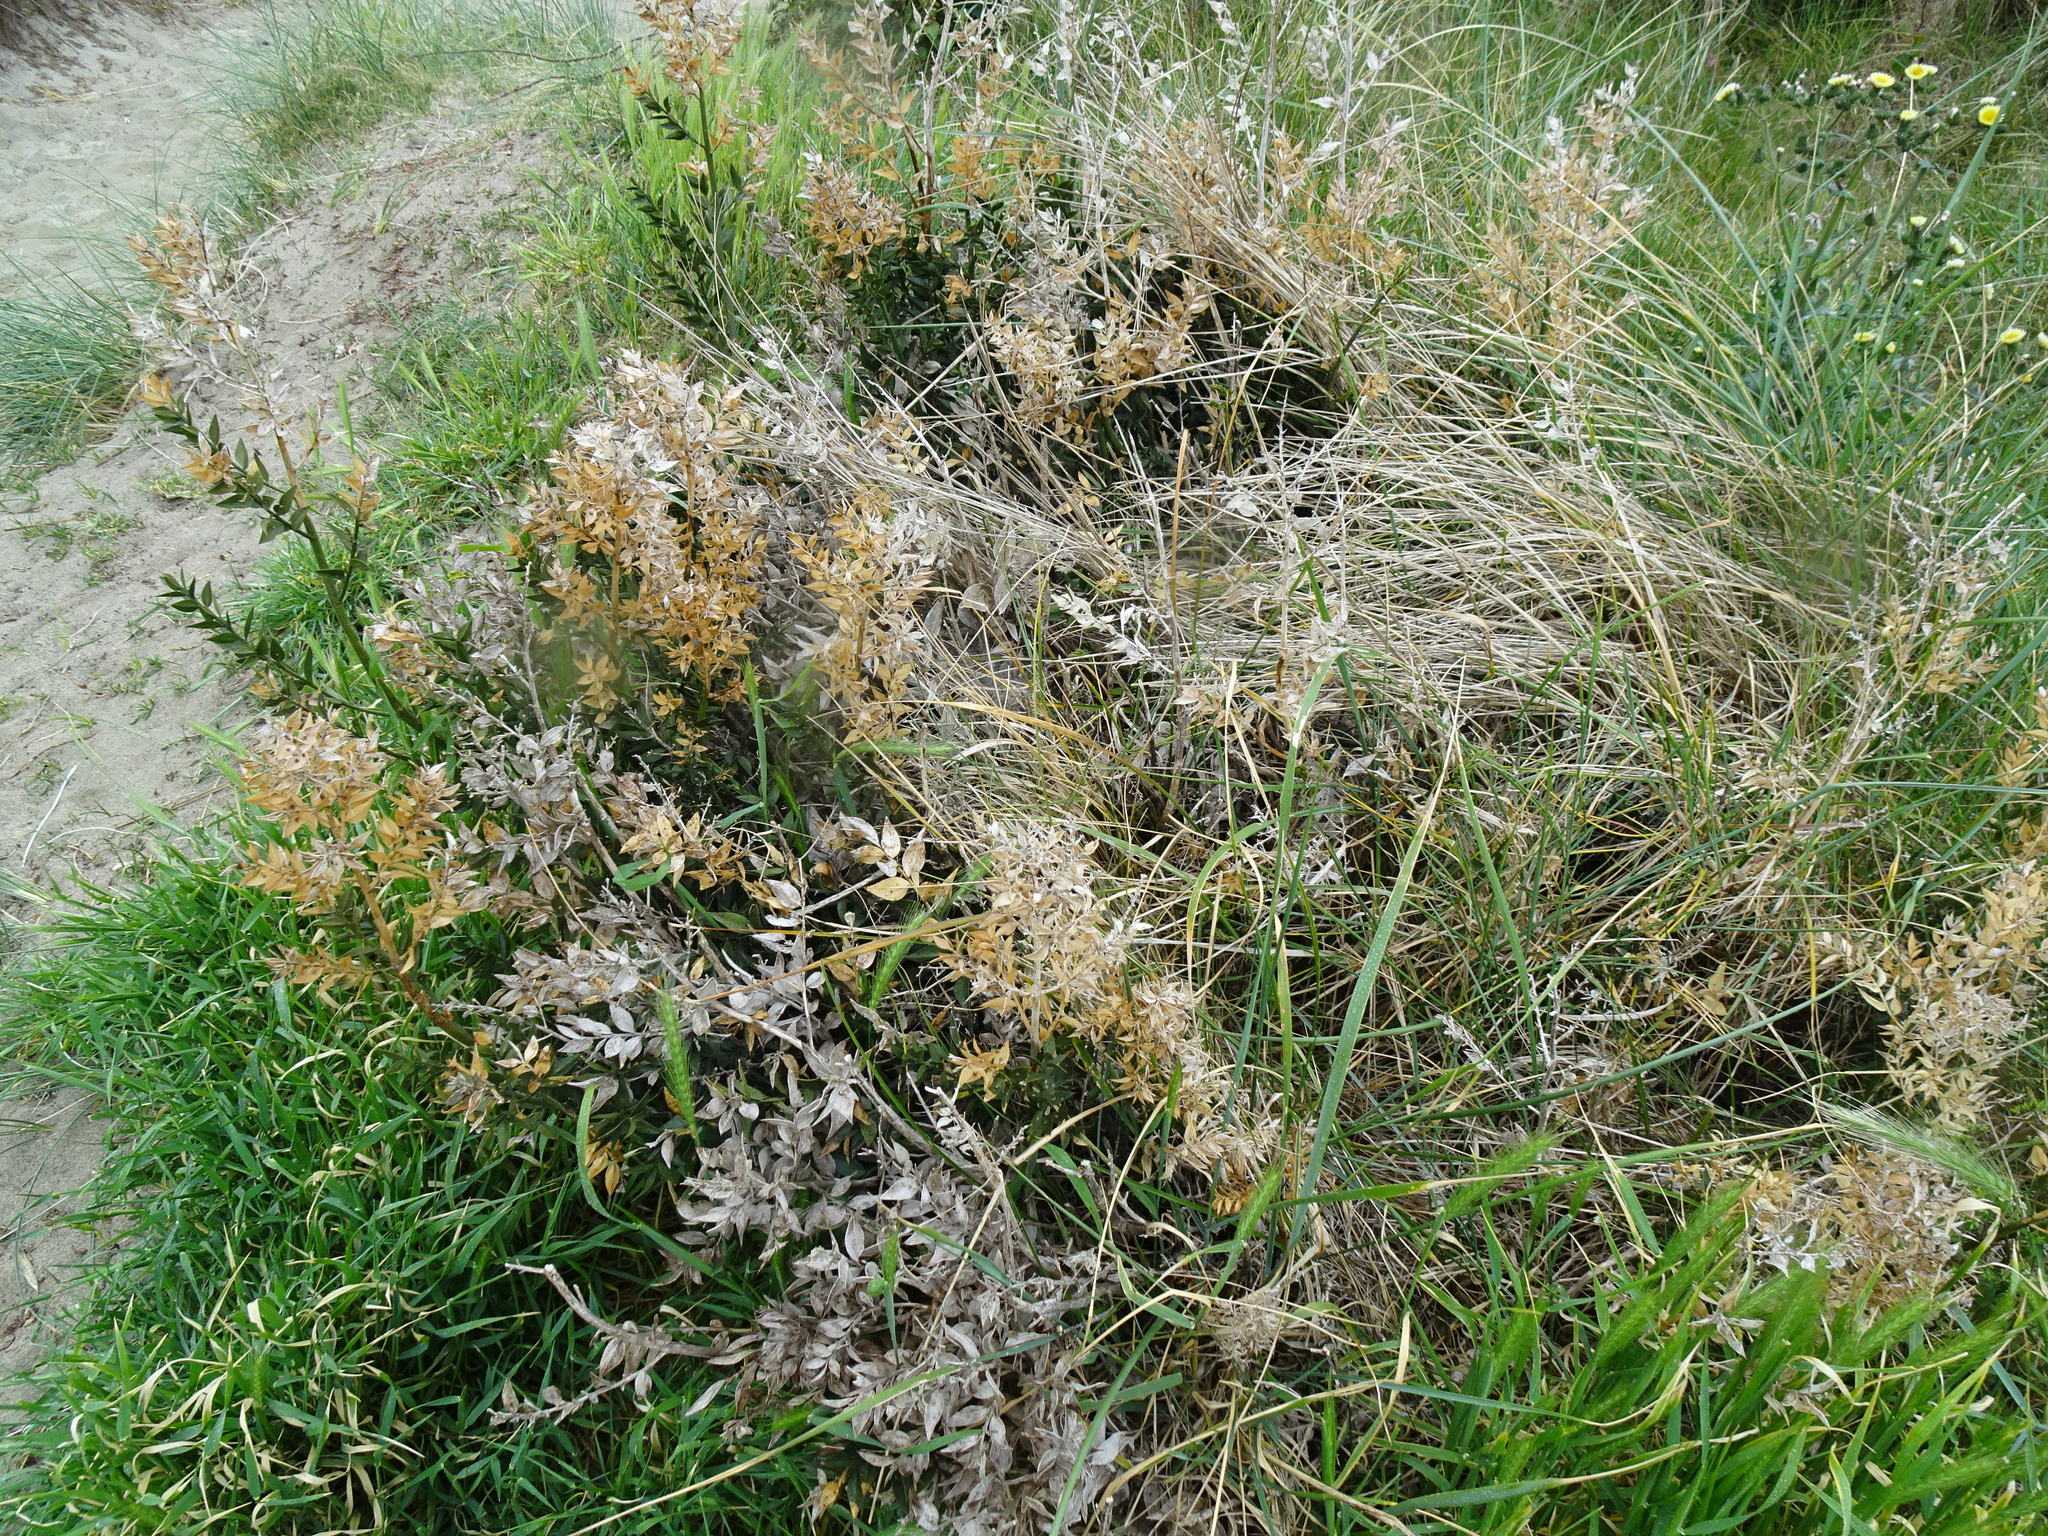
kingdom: Plantae
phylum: Tracheophyta
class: Liliopsida
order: Asparagales
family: Asparagaceae
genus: Ruscus
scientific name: Ruscus aculeatus
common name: Butcher's-broom
